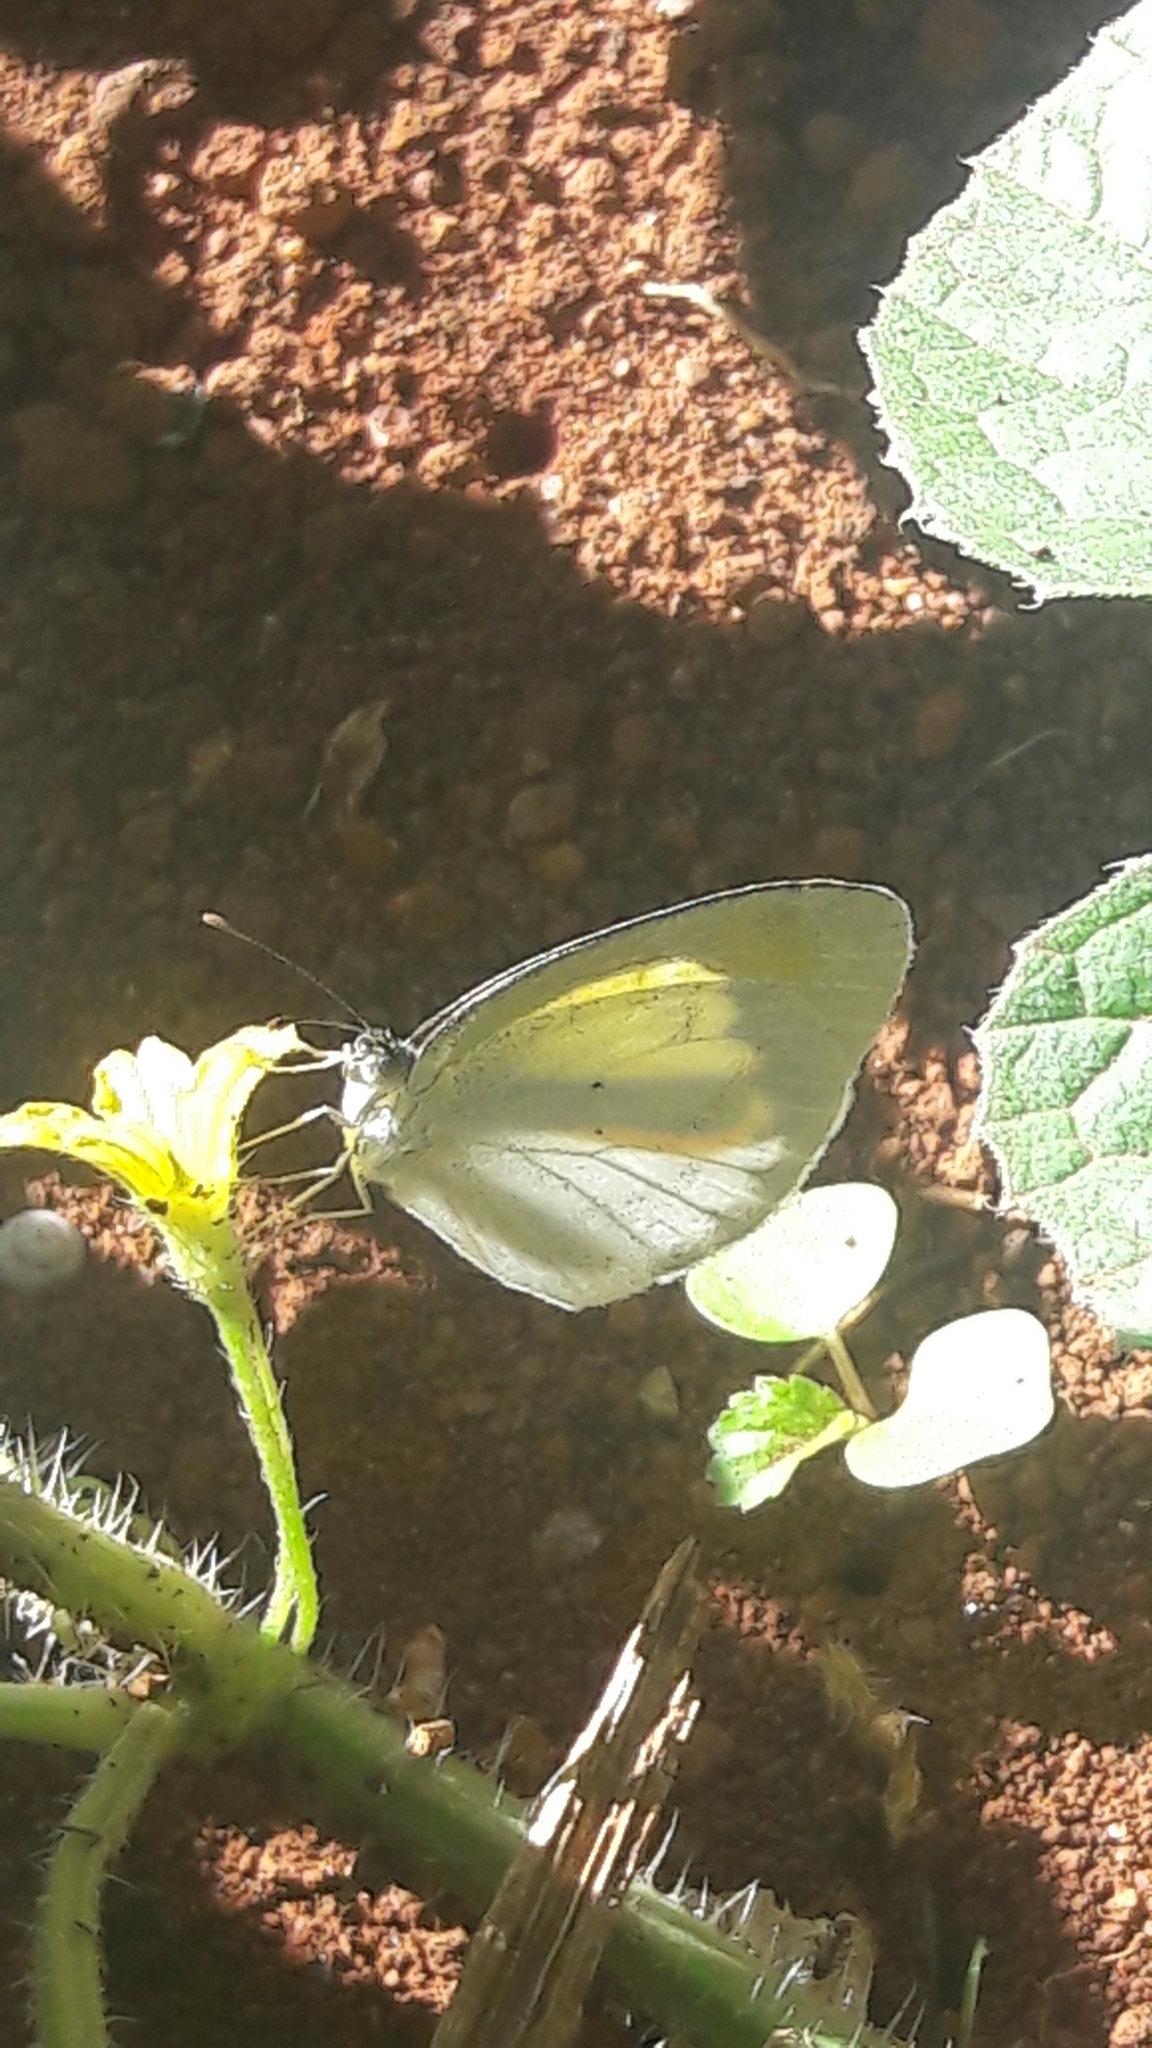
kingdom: Animalia
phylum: Arthropoda
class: Insecta
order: Lepidoptera
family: Pieridae
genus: Eurema
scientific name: Eurema elathea
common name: Banded yellow
